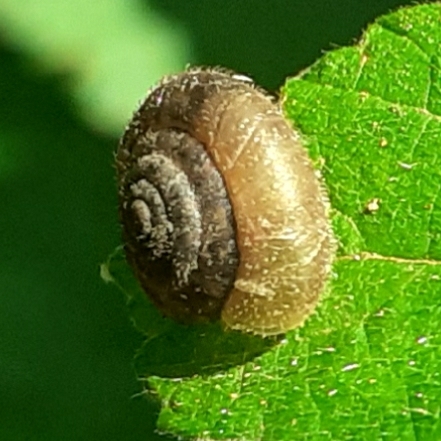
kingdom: Animalia
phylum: Mollusca
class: Gastropoda
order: Stylommatophora
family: Hygromiidae
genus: Trochulus
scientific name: Trochulus hispidus
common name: Hairy snail
